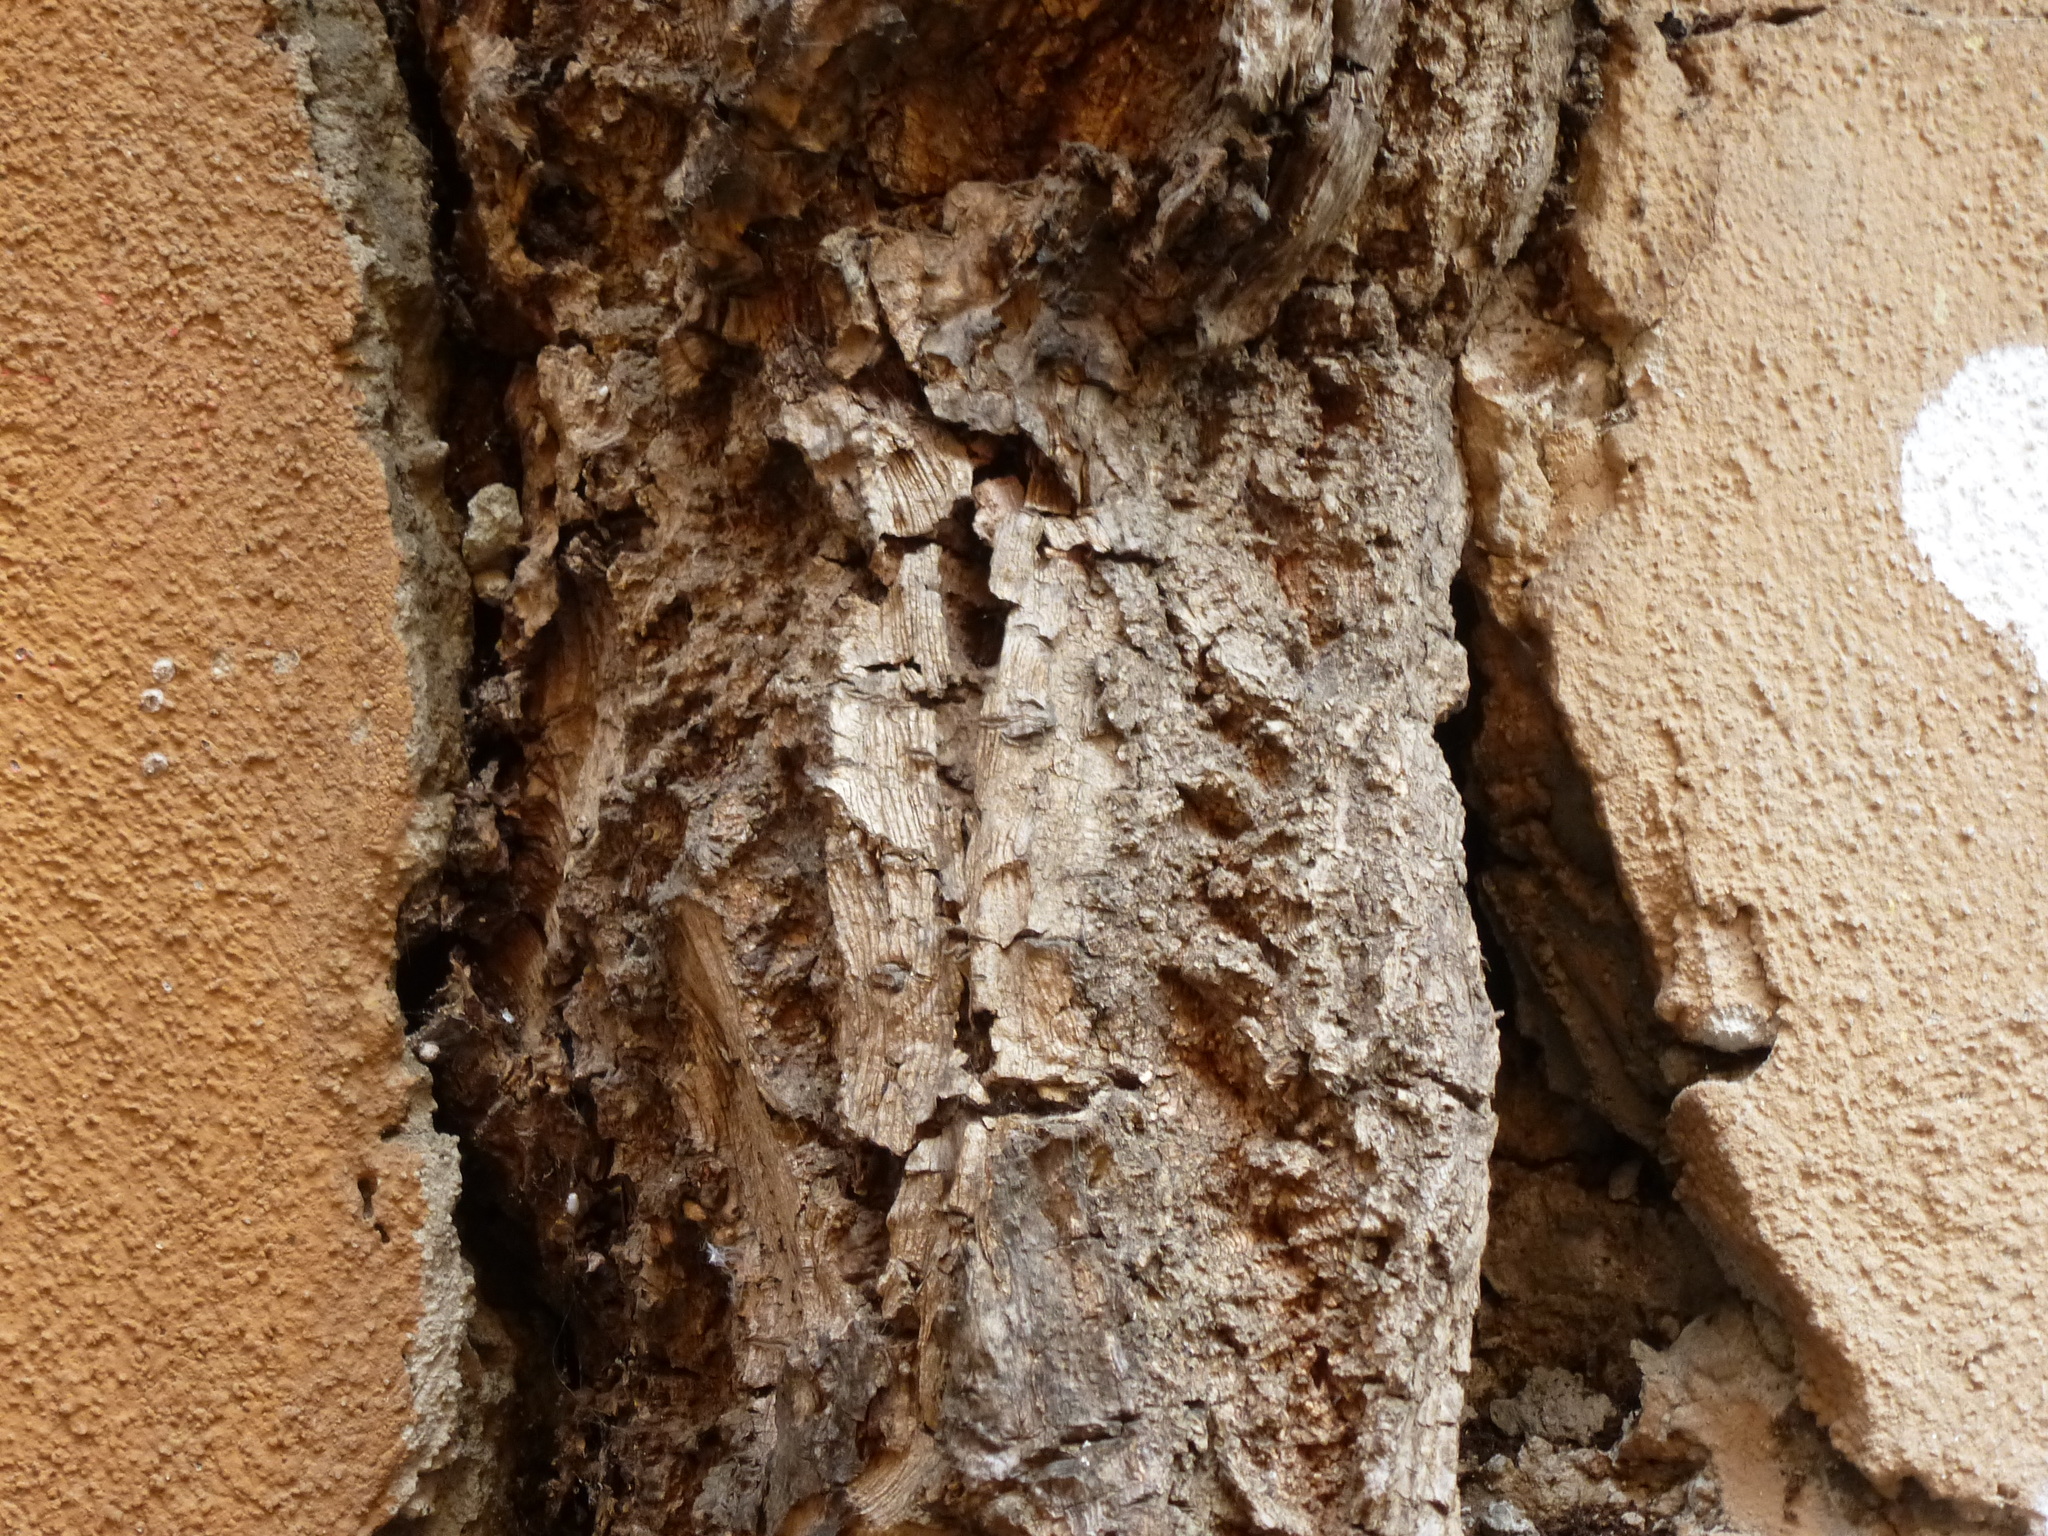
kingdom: Plantae
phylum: Tracheophyta
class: Magnoliopsida
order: Vitales
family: Vitaceae
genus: Parthenocissus
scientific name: Parthenocissus quinquefolia
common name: Virginia-creeper
